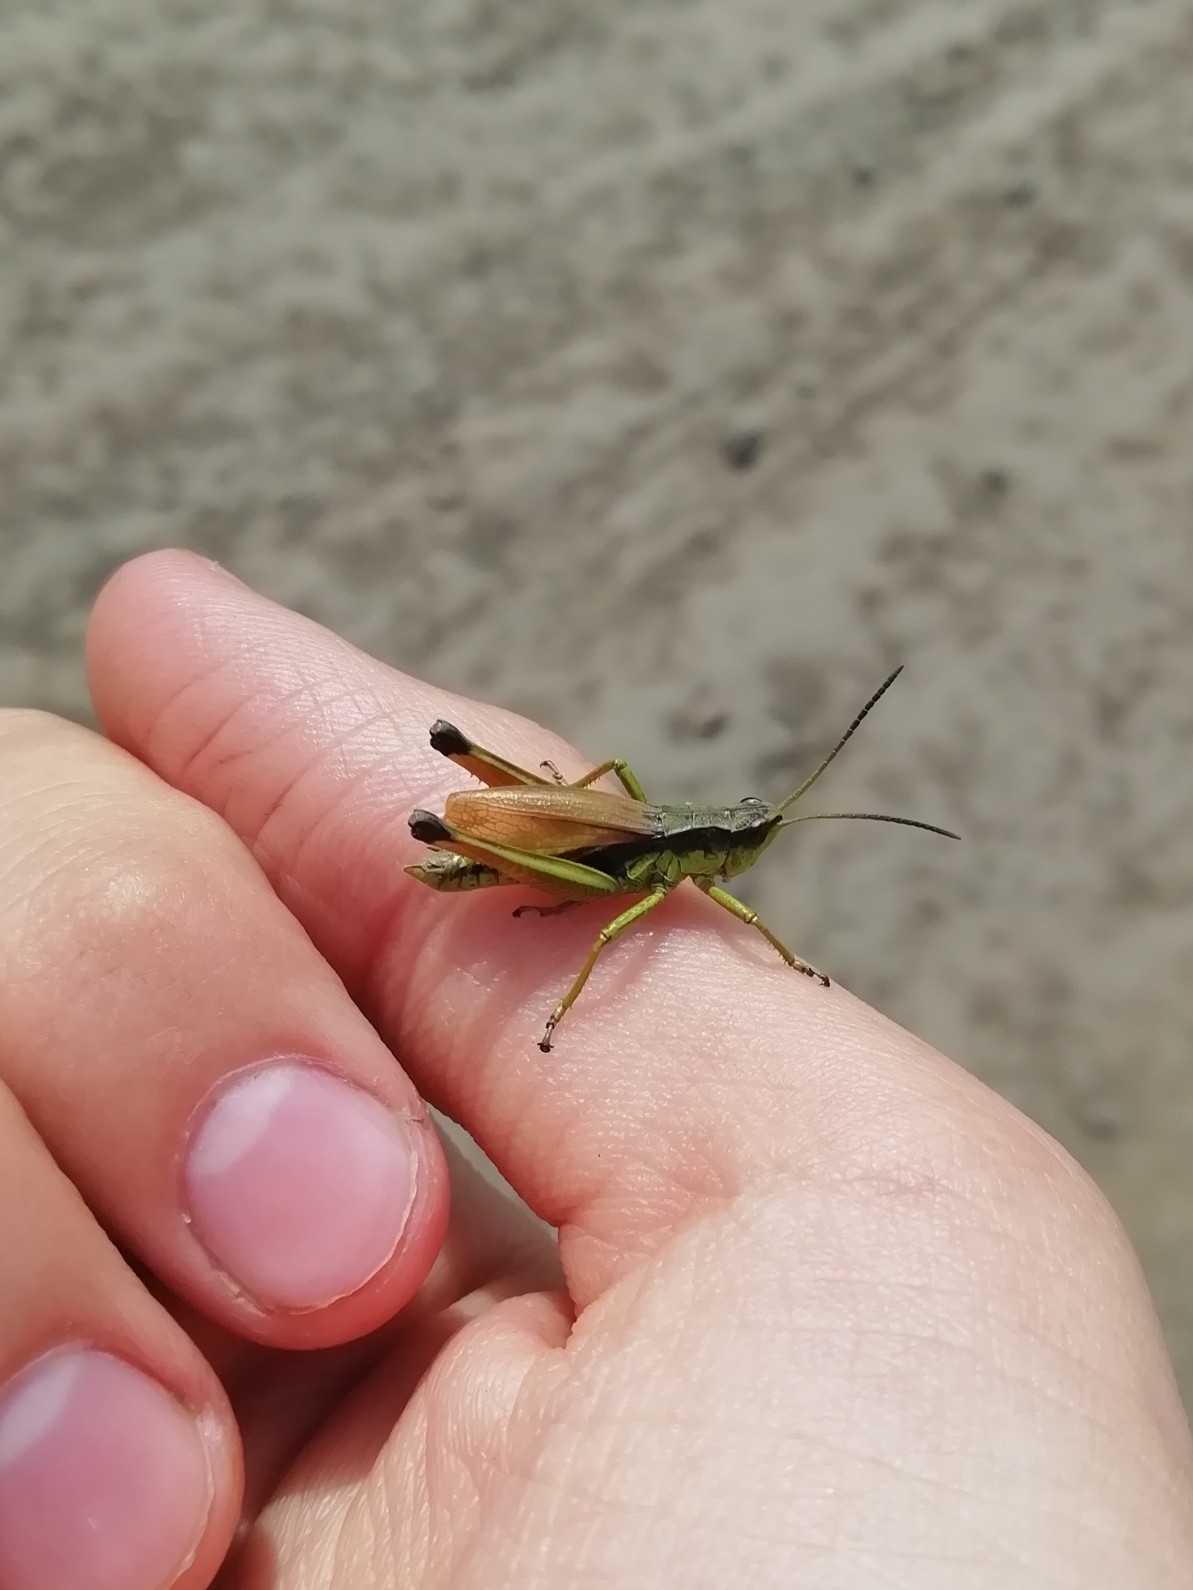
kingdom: Animalia
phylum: Arthropoda
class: Insecta
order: Orthoptera
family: Acrididae
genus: Podismopsis
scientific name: Podismopsis poppiusi
